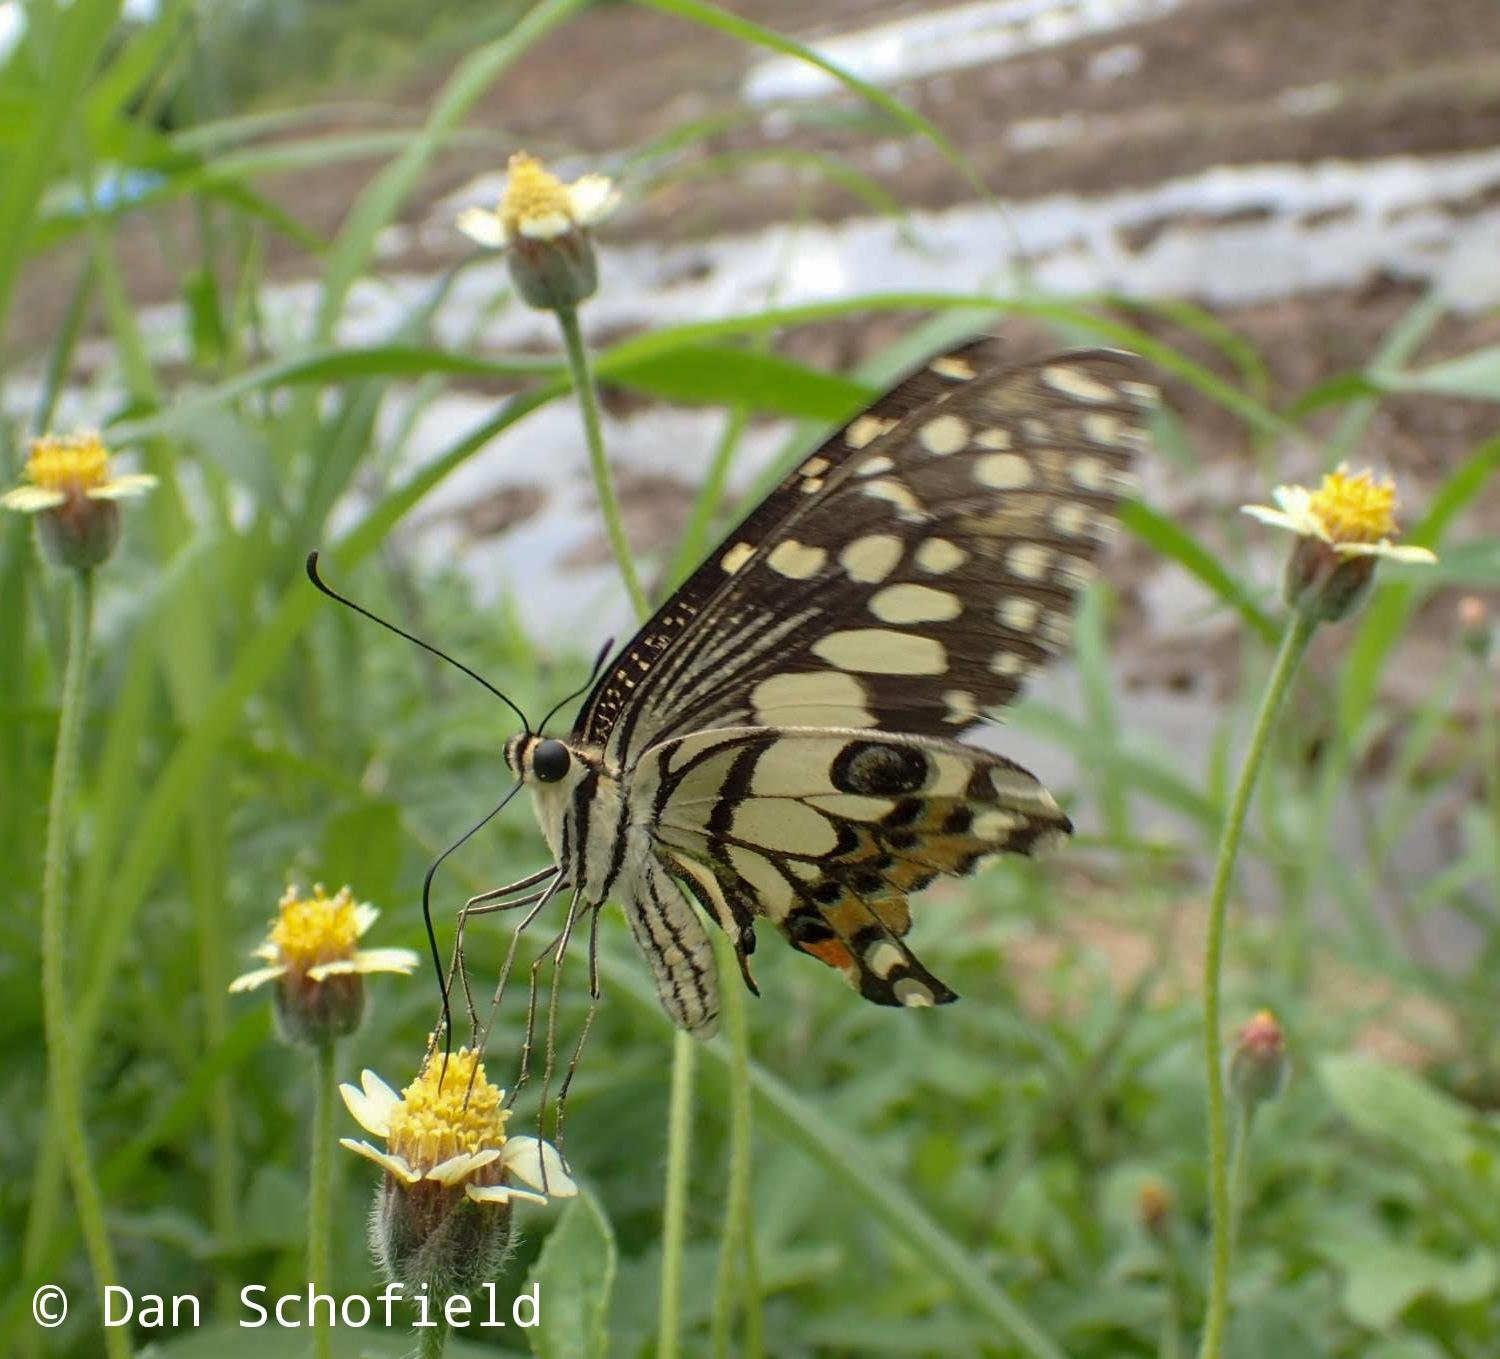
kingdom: Animalia
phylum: Arthropoda
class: Insecta
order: Lepidoptera
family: Papilionidae
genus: Papilio
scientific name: Papilio demoleus
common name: Lime butterfly
